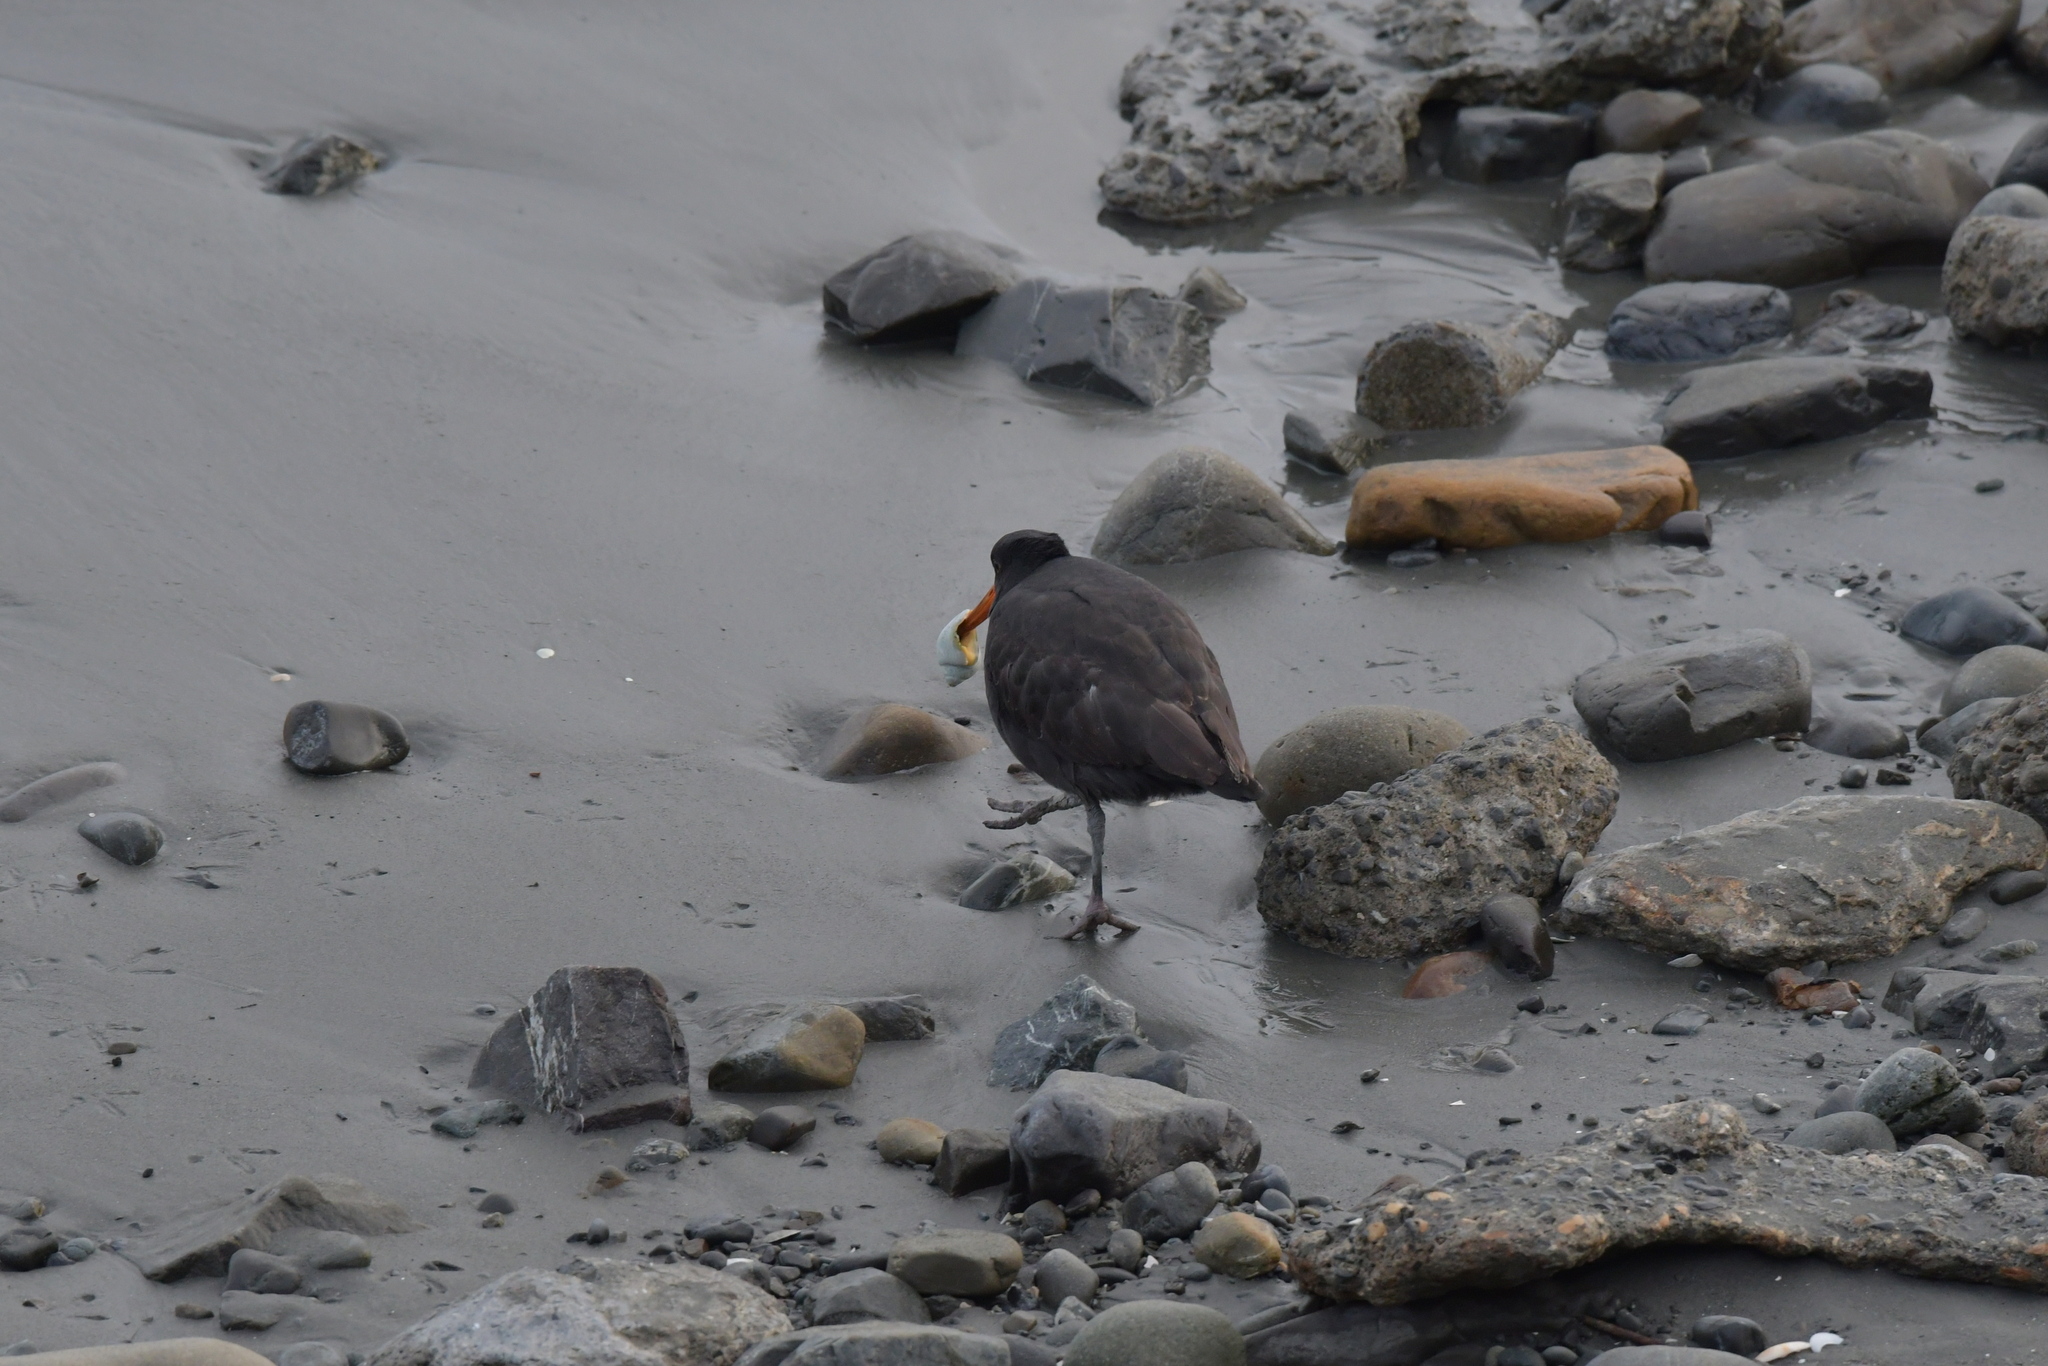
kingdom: Animalia
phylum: Chordata
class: Aves
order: Charadriiformes
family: Haematopodidae
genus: Haematopus
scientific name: Haematopus unicolor
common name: Variable oystercatcher
